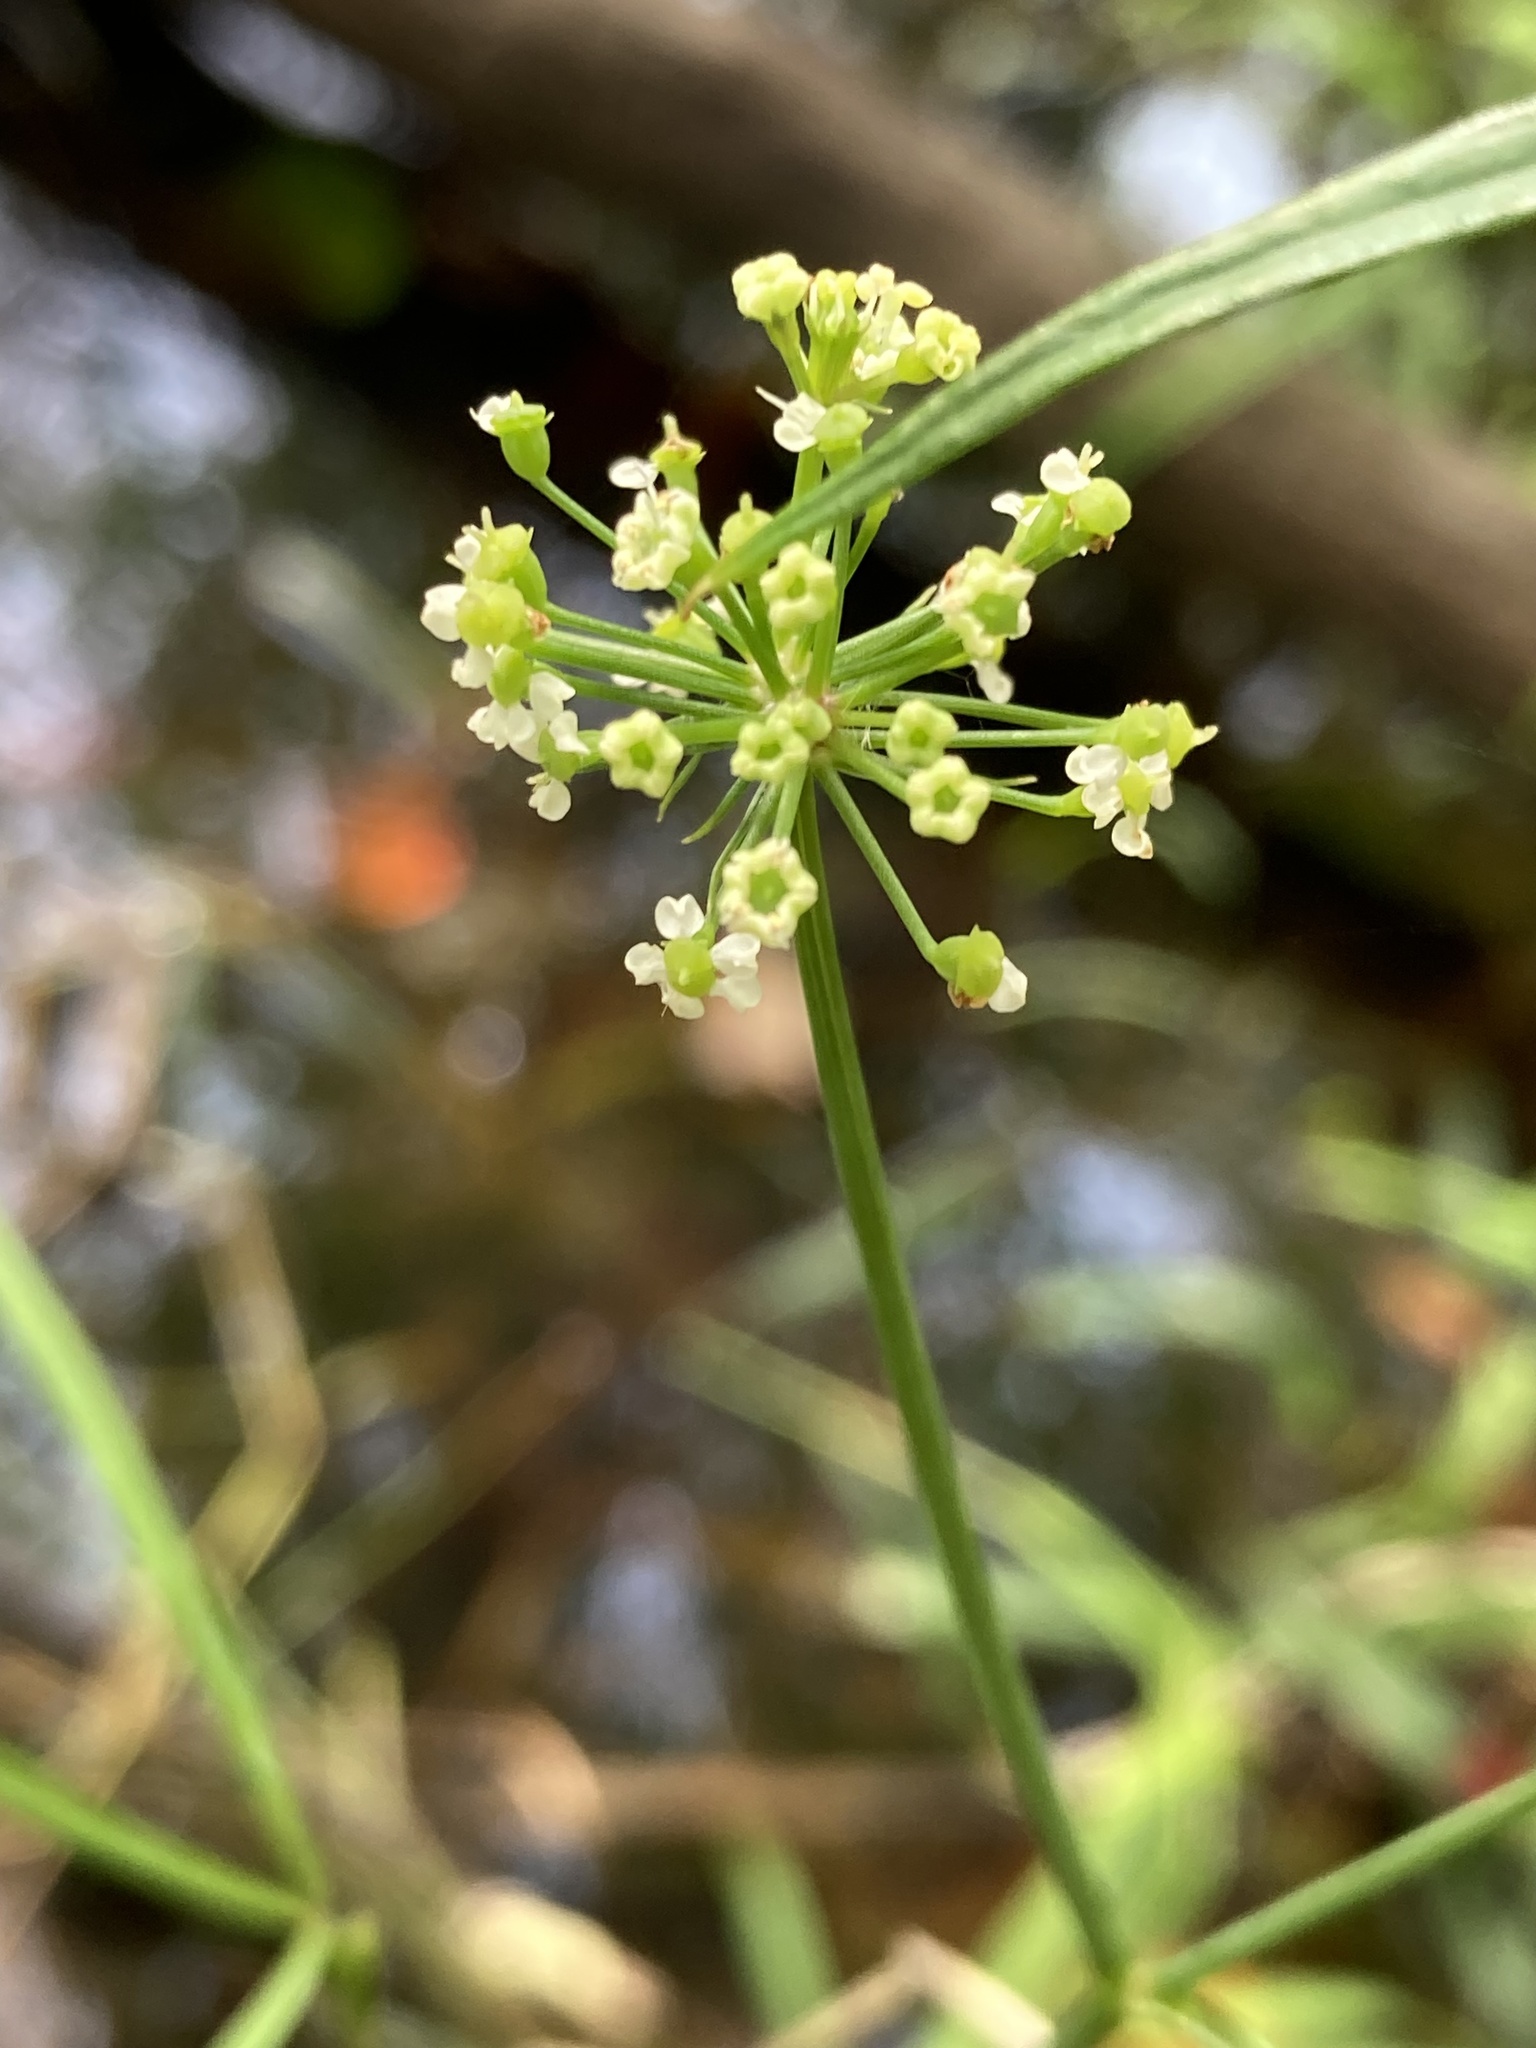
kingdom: Plantae
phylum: Tracheophyta
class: Magnoliopsida
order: Apiales
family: Apiaceae
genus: Oxypolis
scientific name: Oxypolis rigidior
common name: Cowbane
